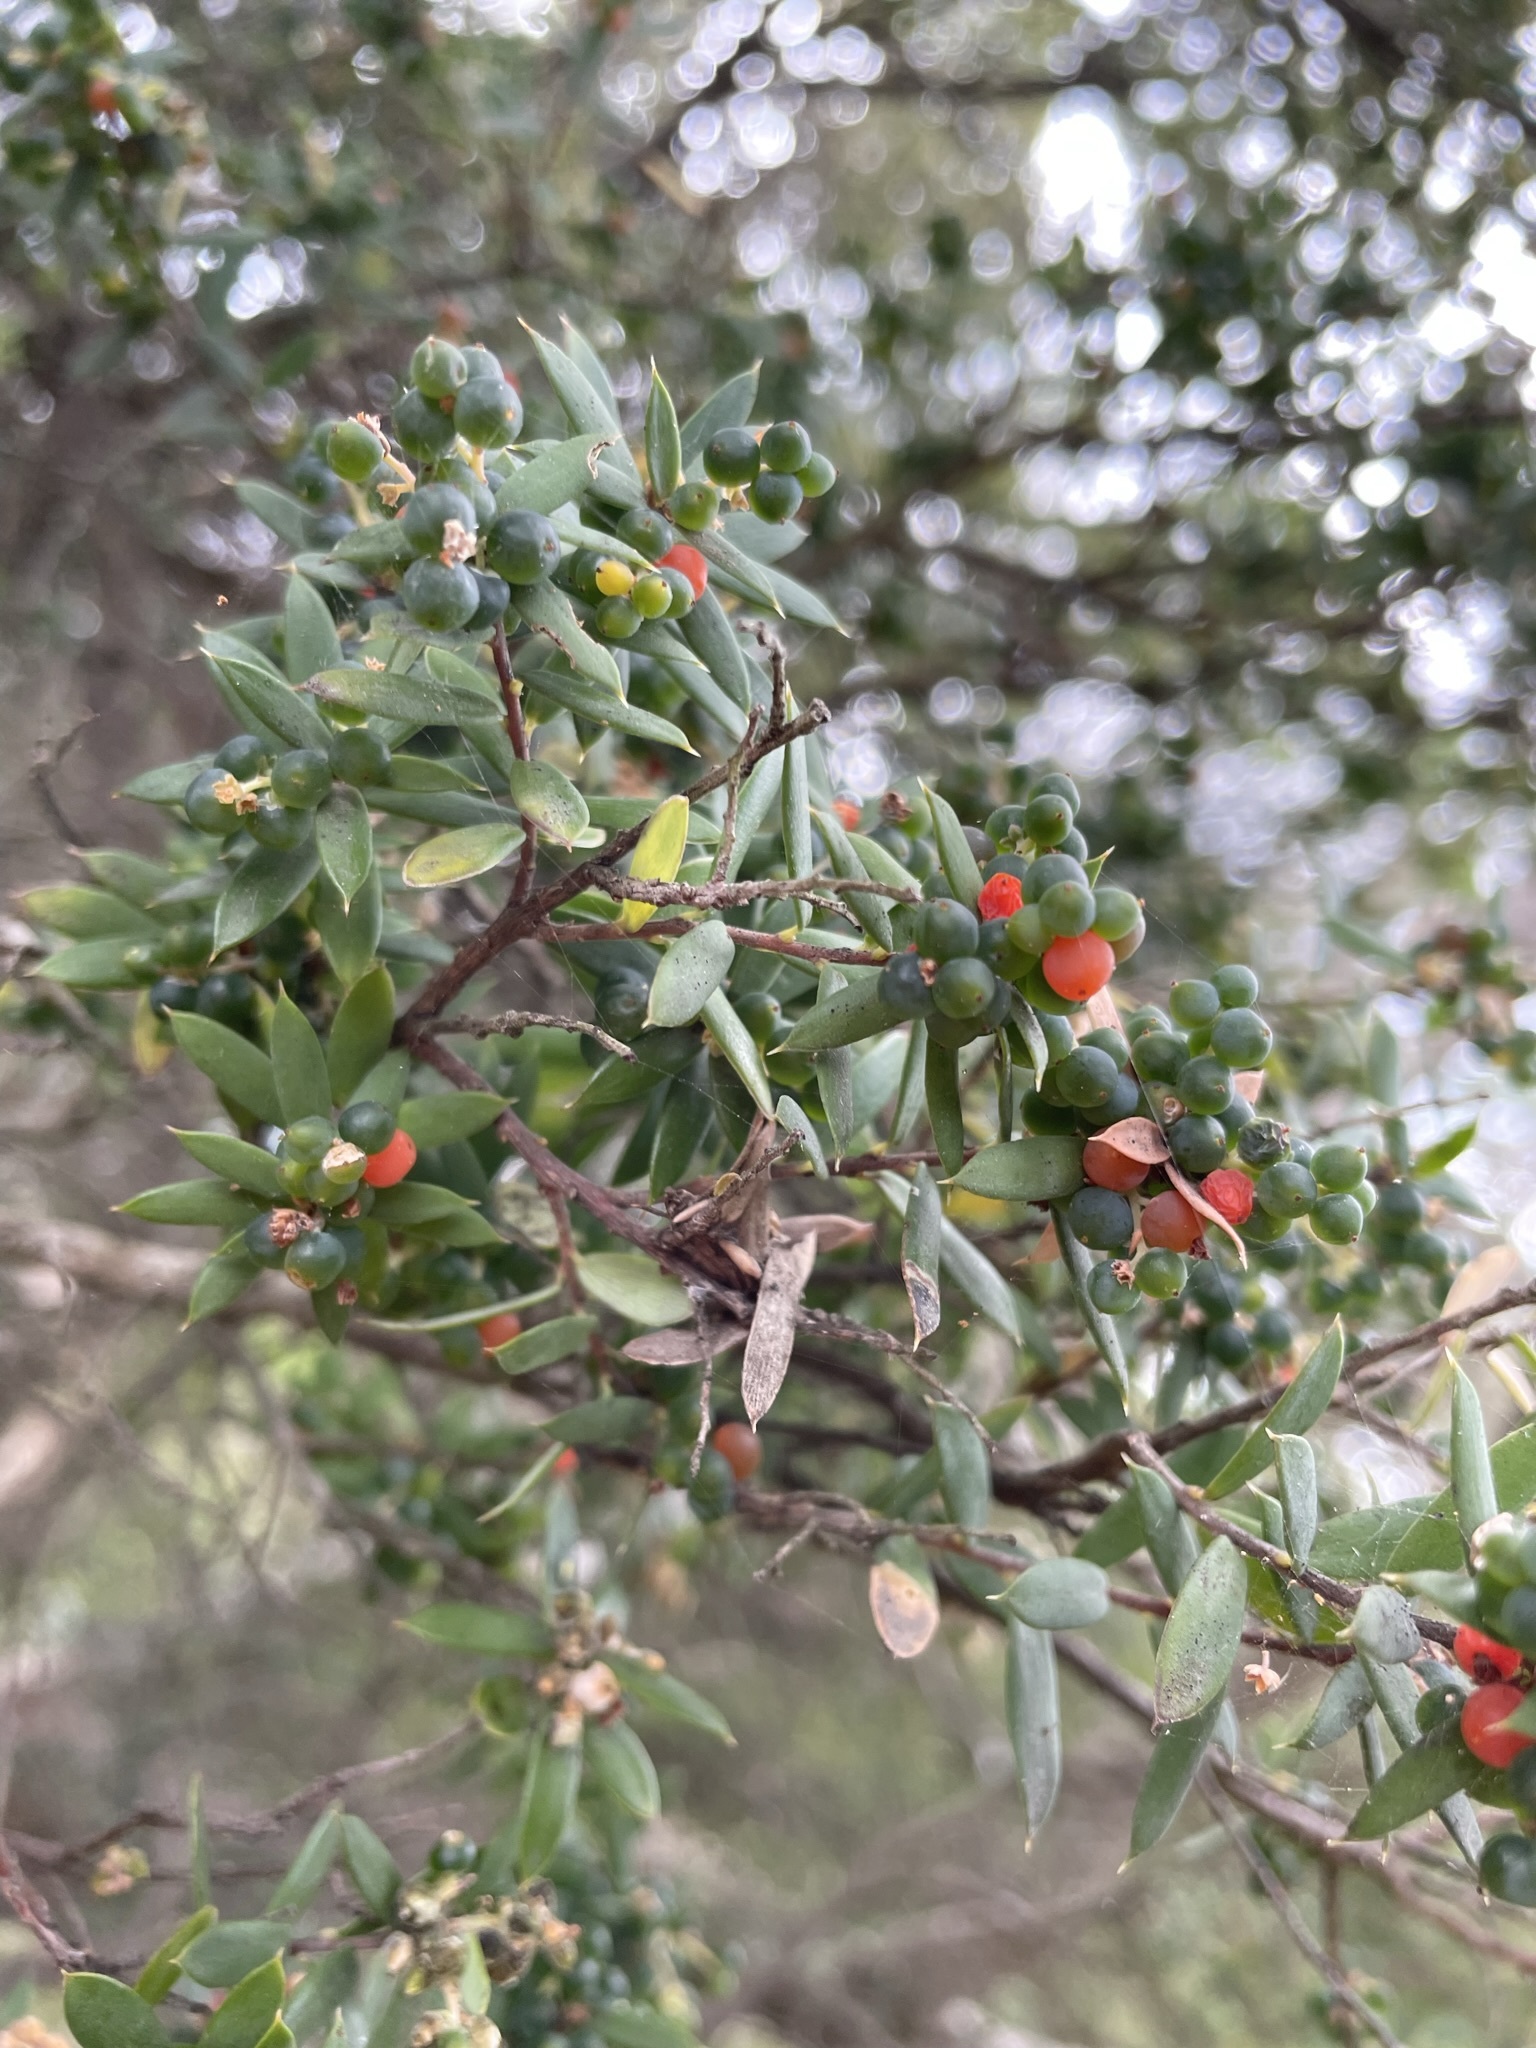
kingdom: Plantae
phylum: Tracheophyta
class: Magnoliopsida
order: Ericales
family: Ericaceae
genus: Monotoca
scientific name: Monotoca elliptica
